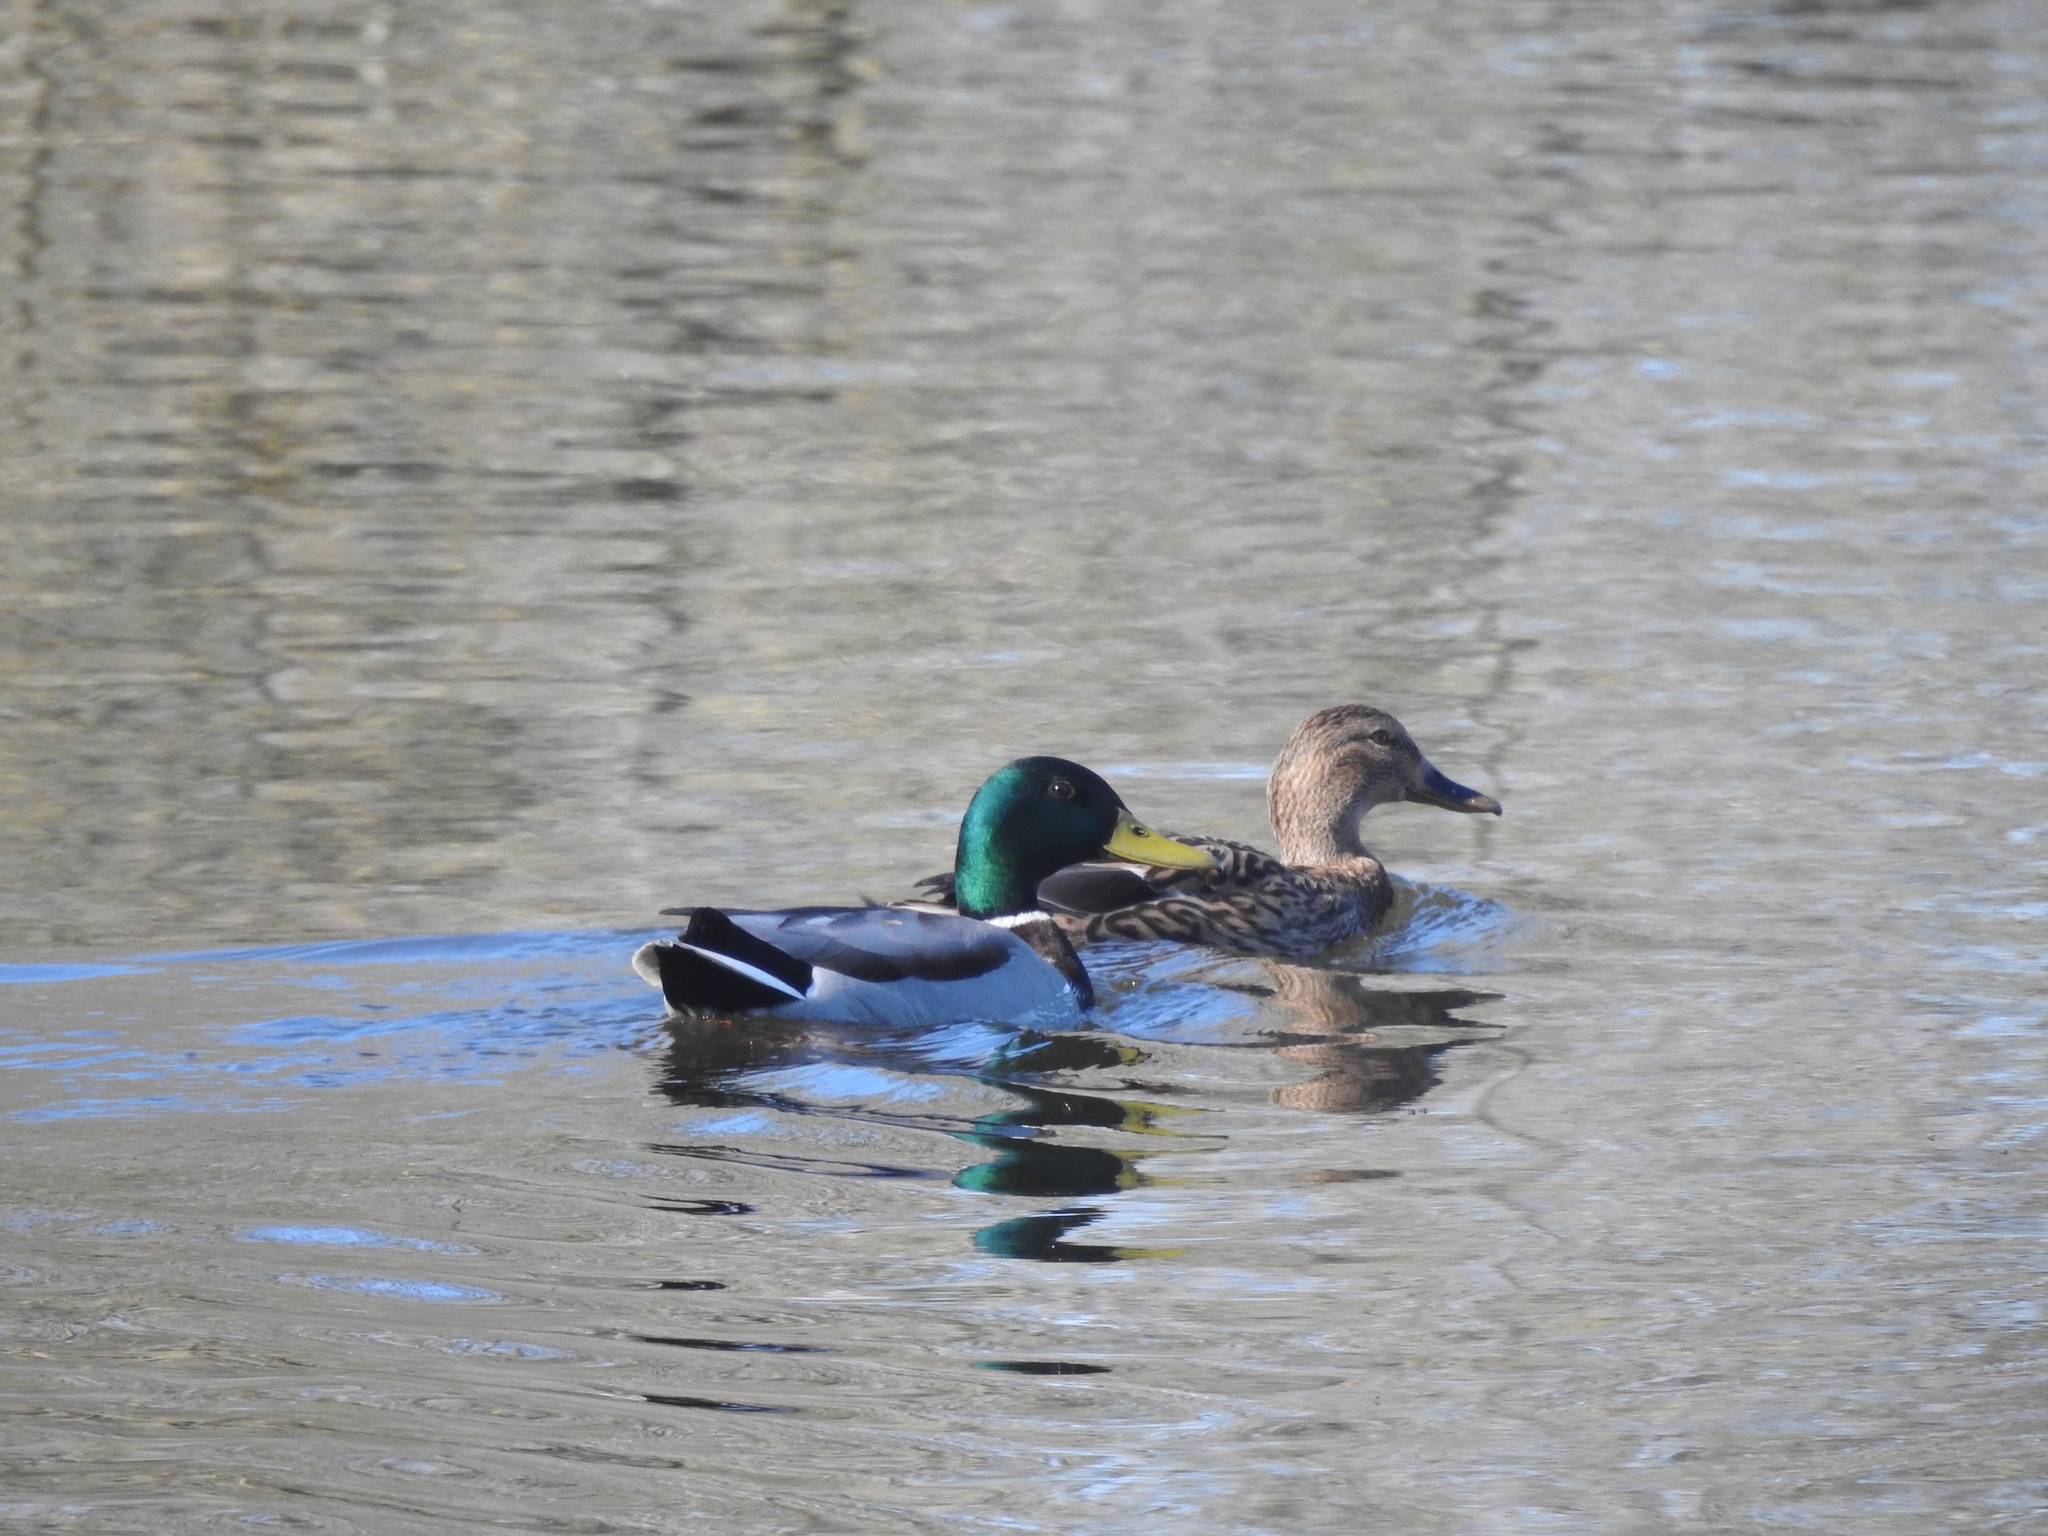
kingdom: Animalia
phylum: Chordata
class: Aves
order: Anseriformes
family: Anatidae
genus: Anas
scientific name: Anas platyrhynchos
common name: Mallard
